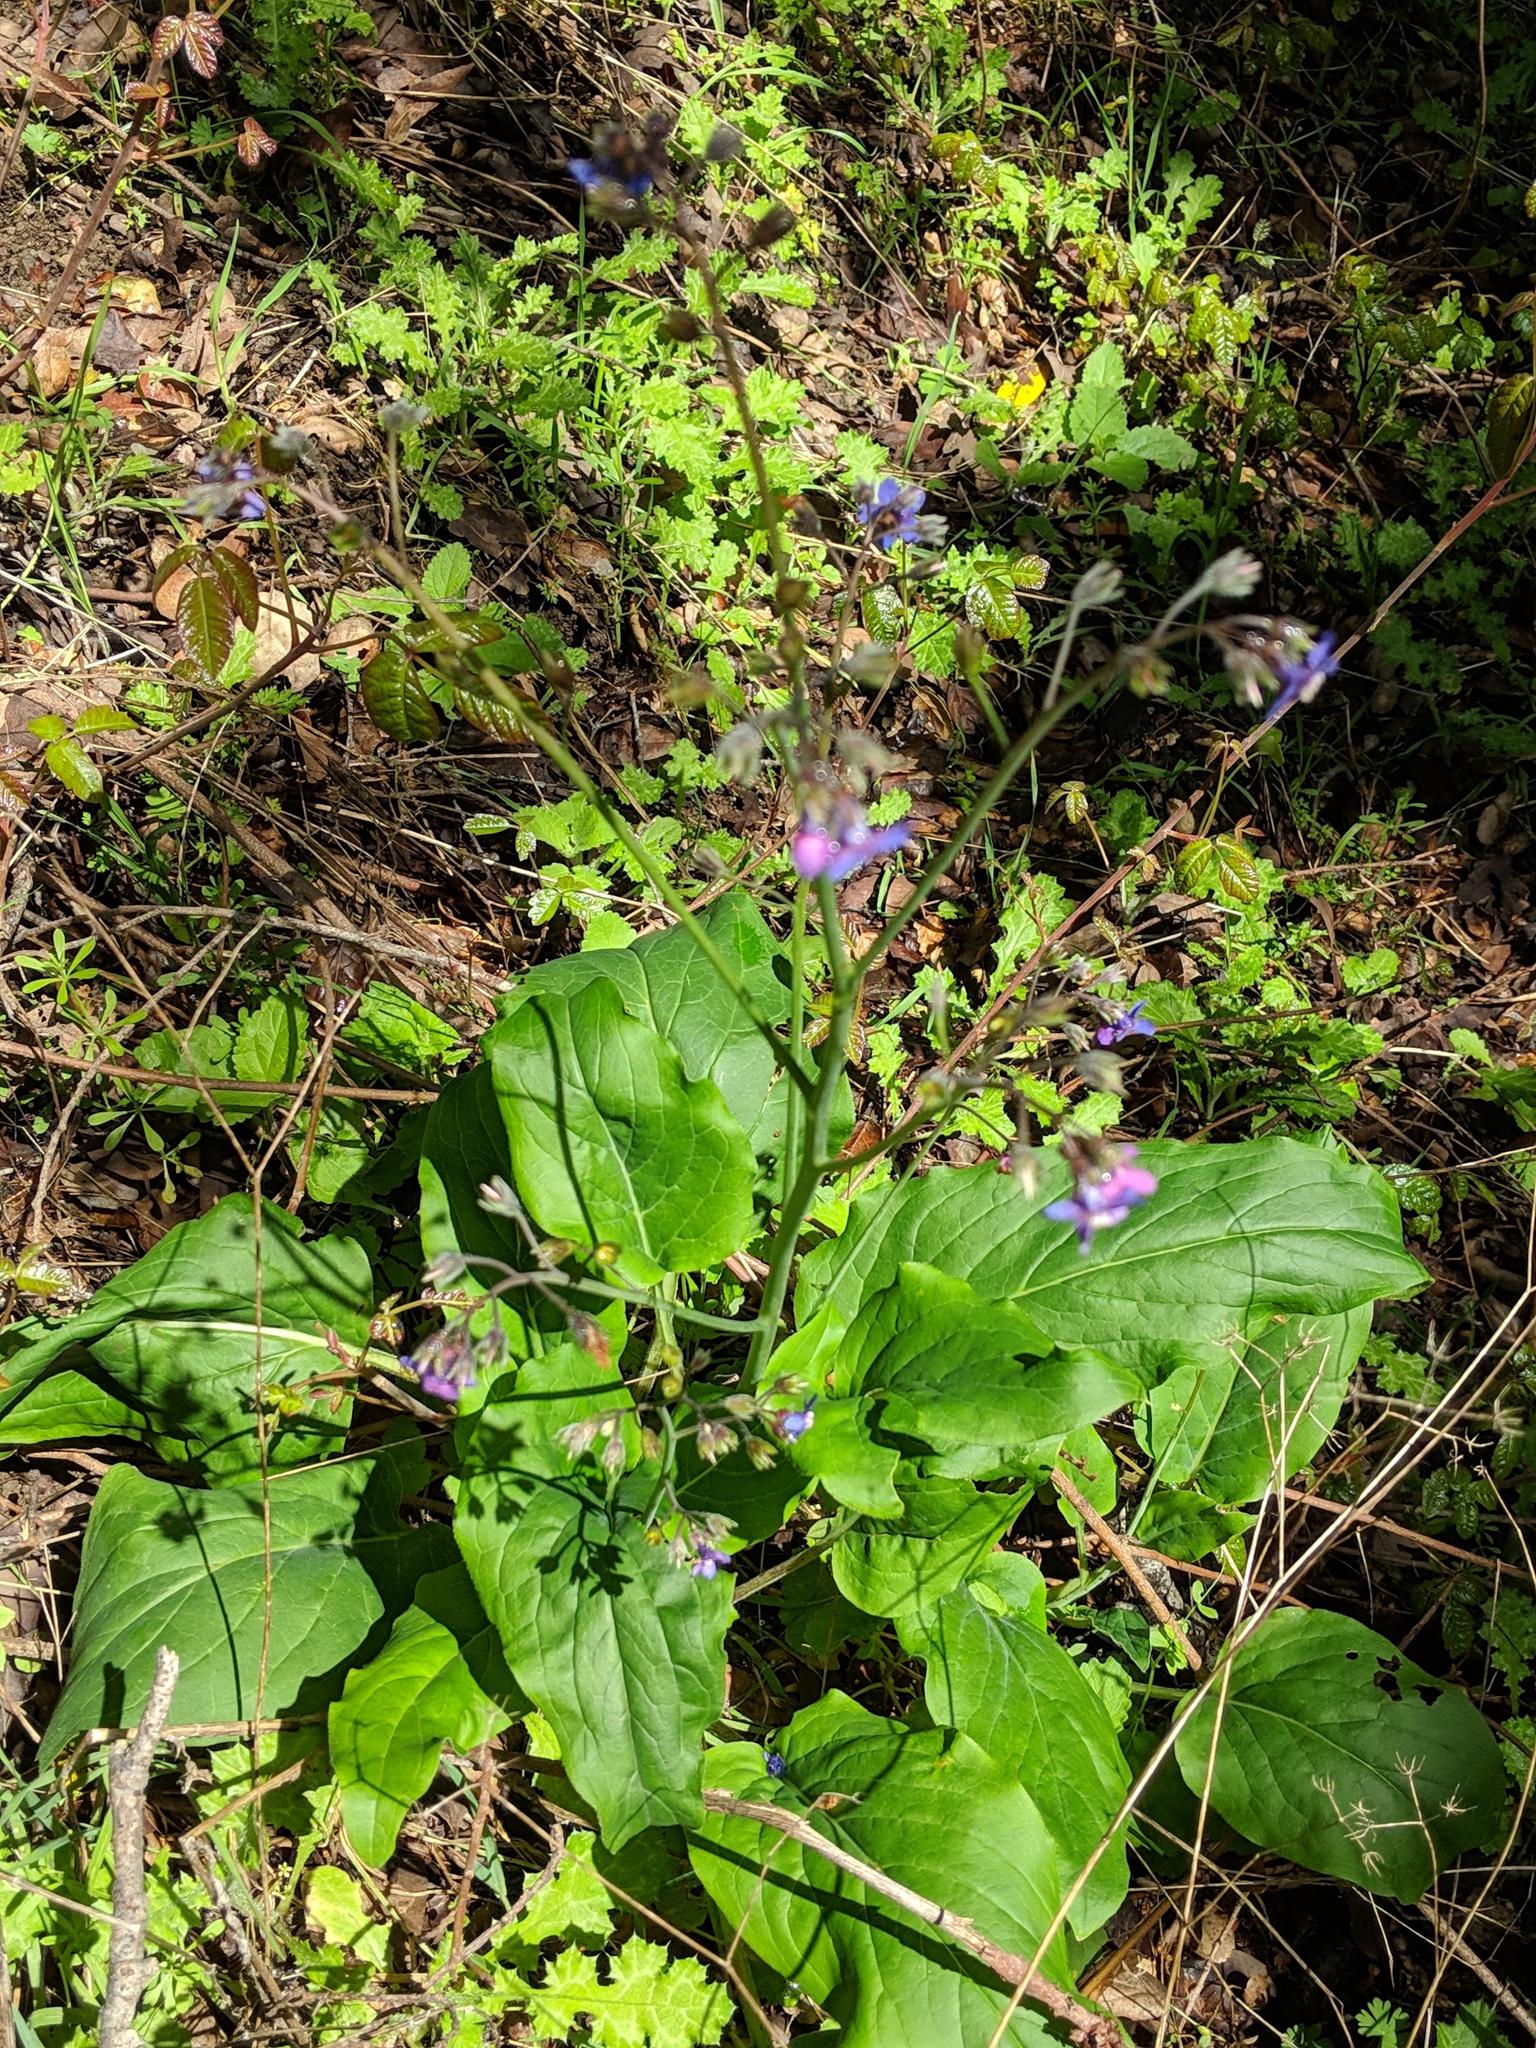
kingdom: Plantae
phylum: Tracheophyta
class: Magnoliopsida
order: Boraginales
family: Boraginaceae
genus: Adelinia
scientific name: Adelinia grande
